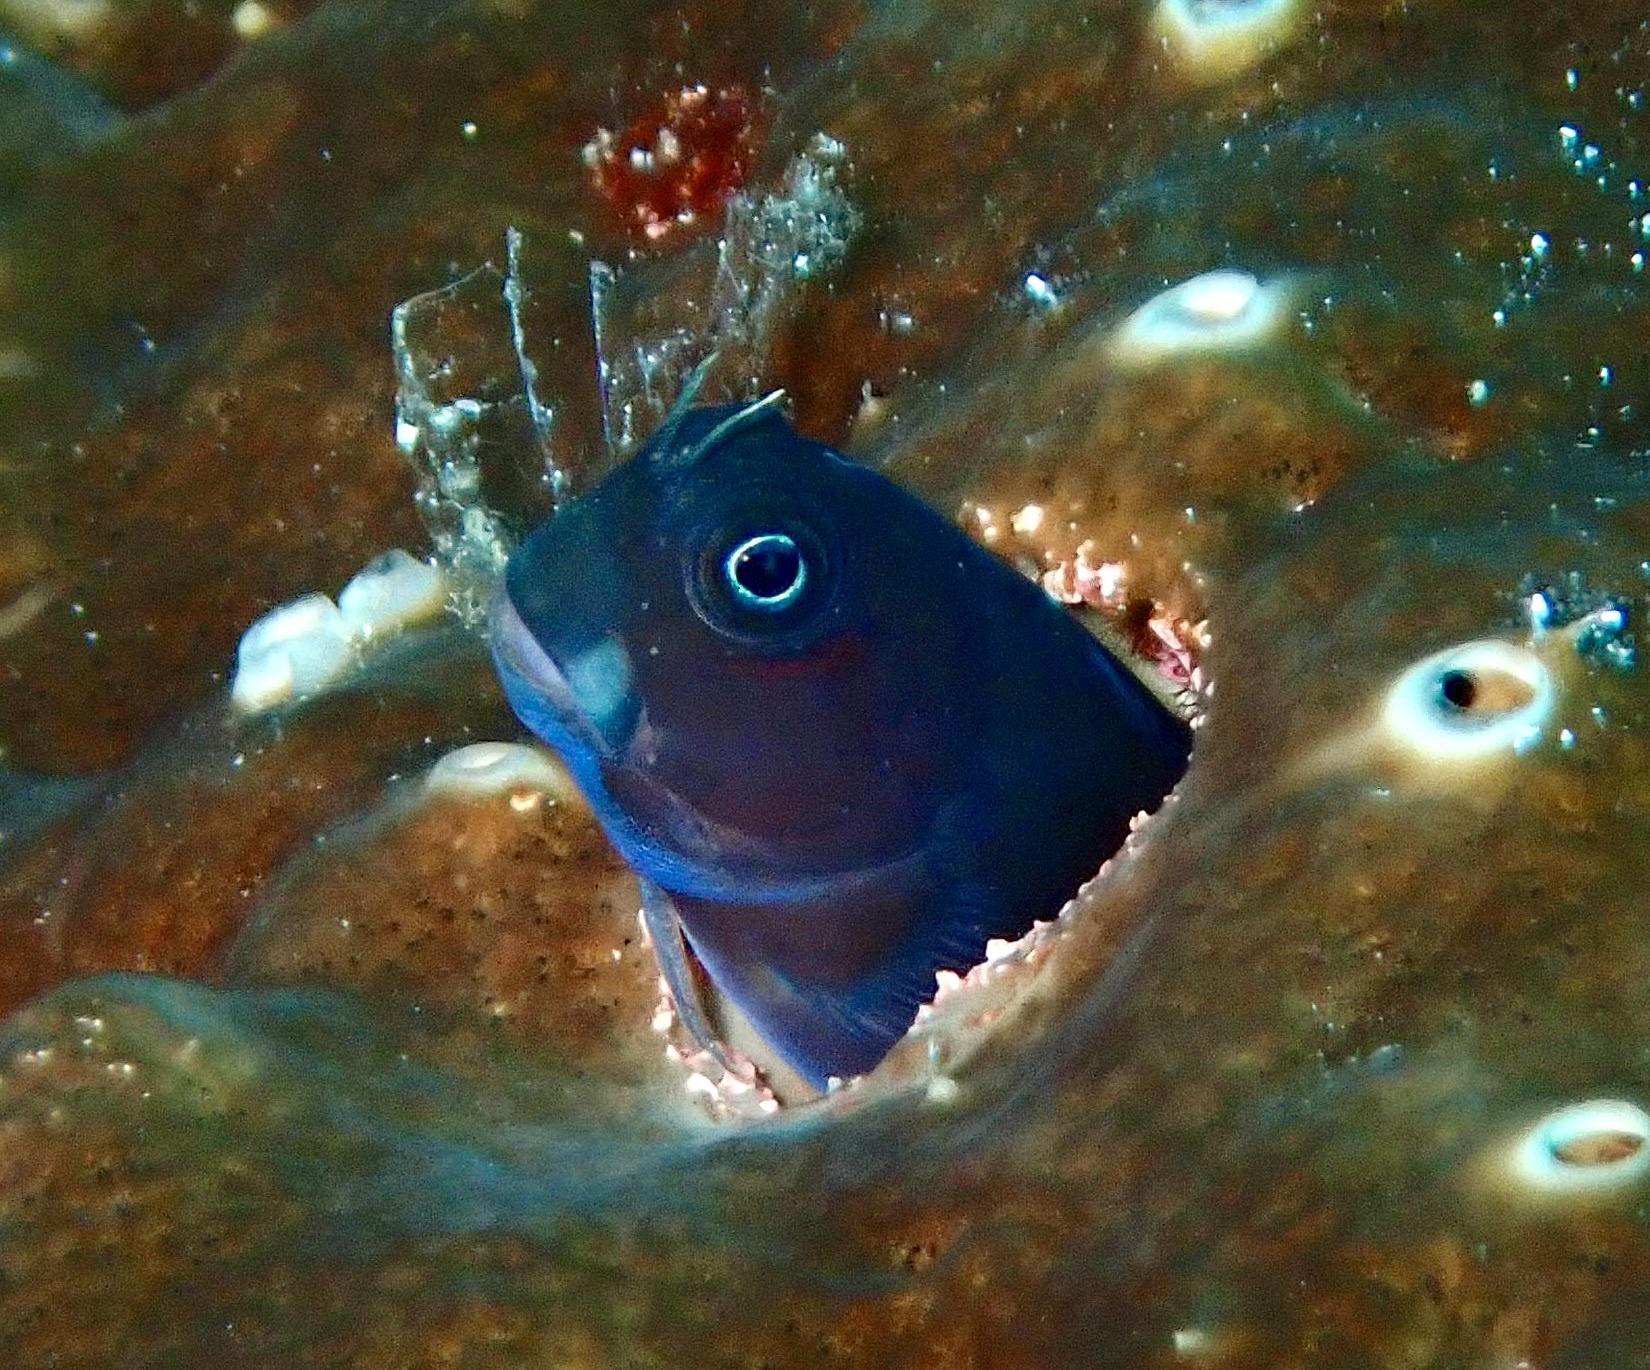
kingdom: Animalia
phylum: Chordata
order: Perciformes
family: Blenniidae
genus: Ecsenius
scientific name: Ecsenius bicolor
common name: Bicolor blenny
